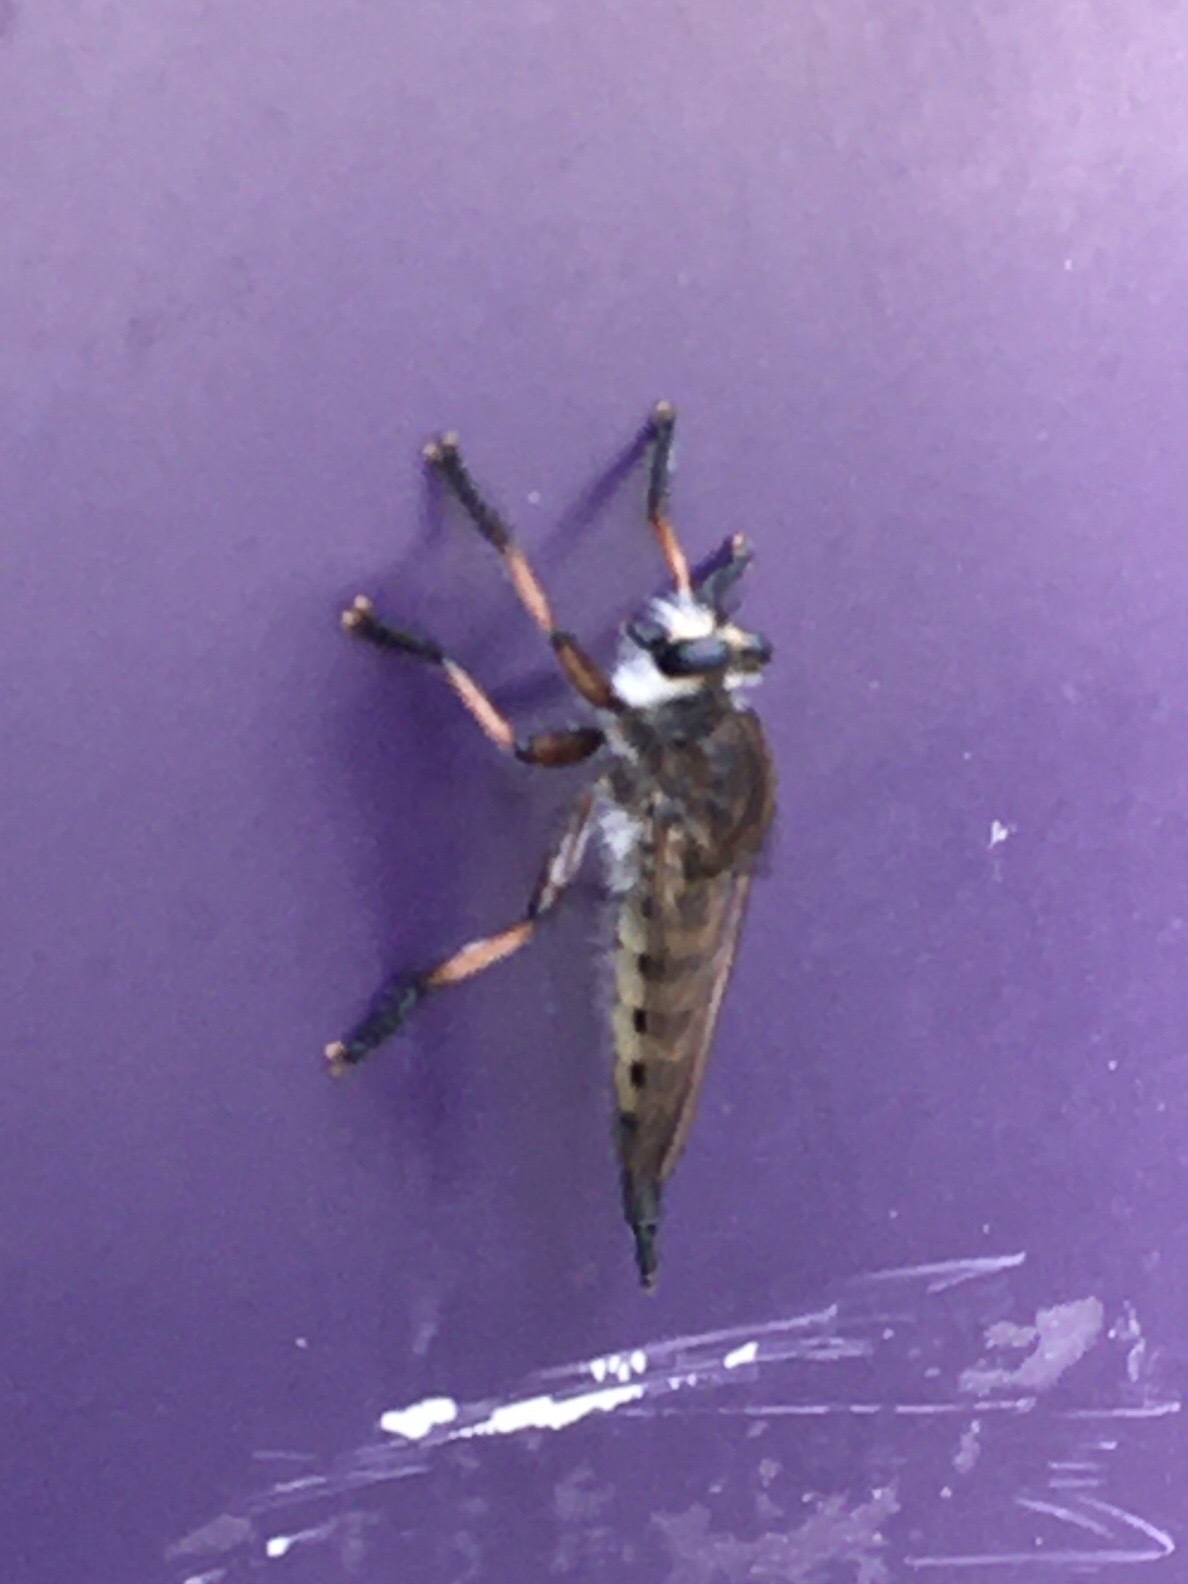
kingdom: Animalia
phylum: Arthropoda
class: Insecta
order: Diptera
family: Asilidae
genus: Promachus
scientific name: Promachus hinei
